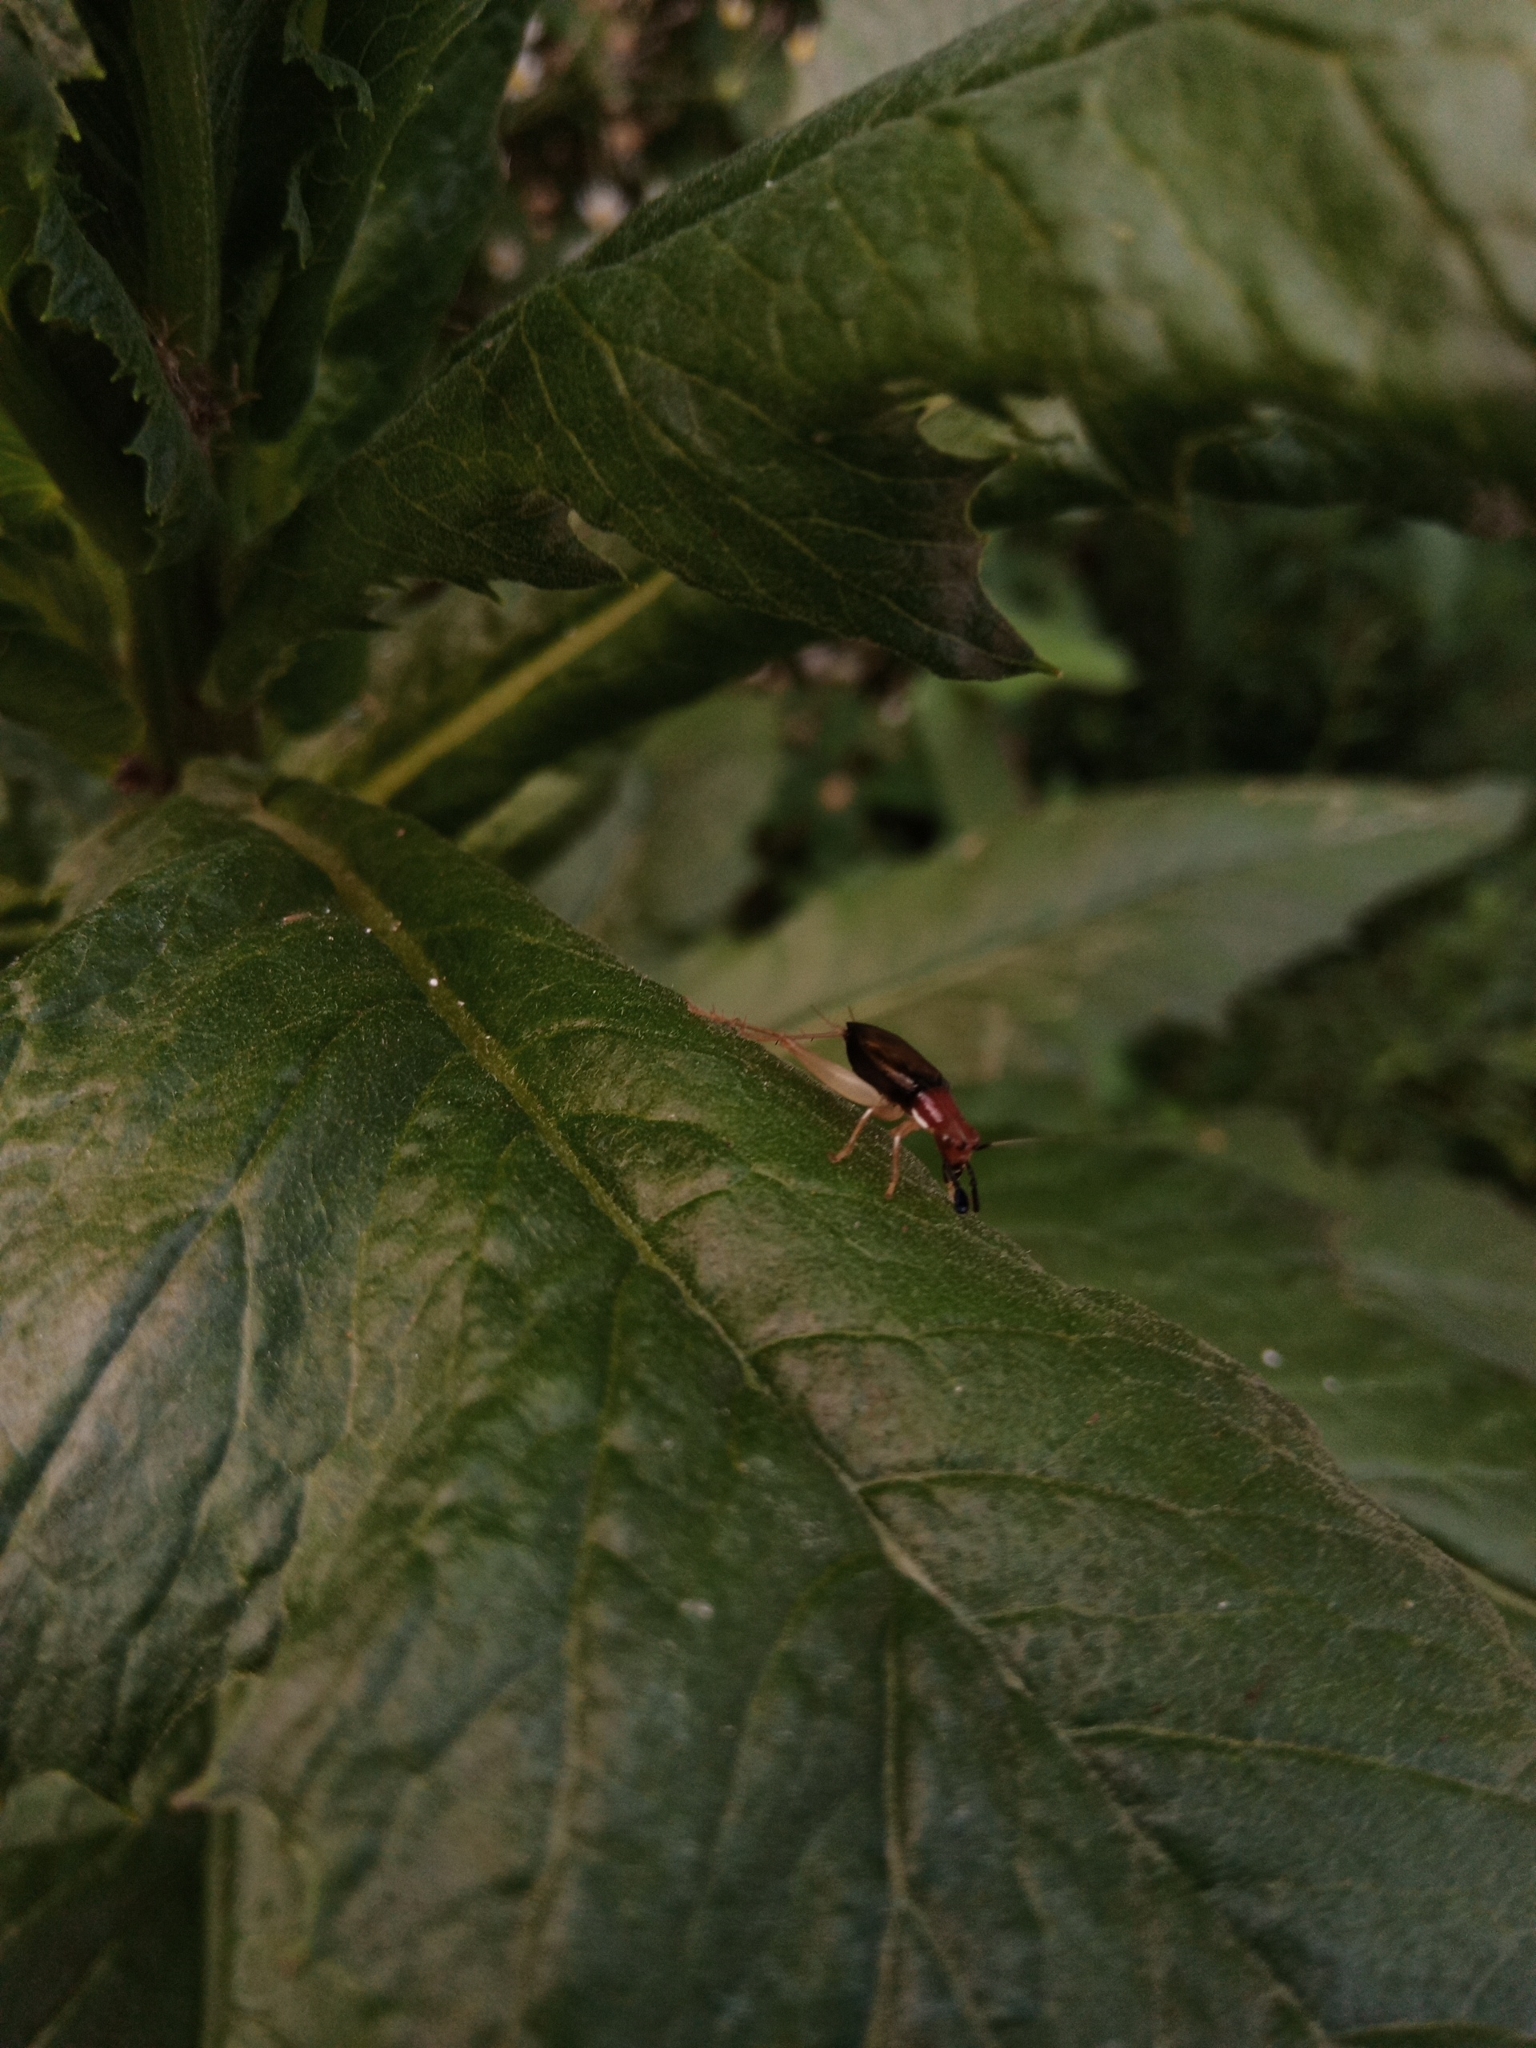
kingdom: Animalia
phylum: Arthropoda
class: Insecta
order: Orthoptera
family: Trigonidiidae
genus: Phyllopalpus
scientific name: Phyllopalpus pulchellus
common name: Handsome trig
